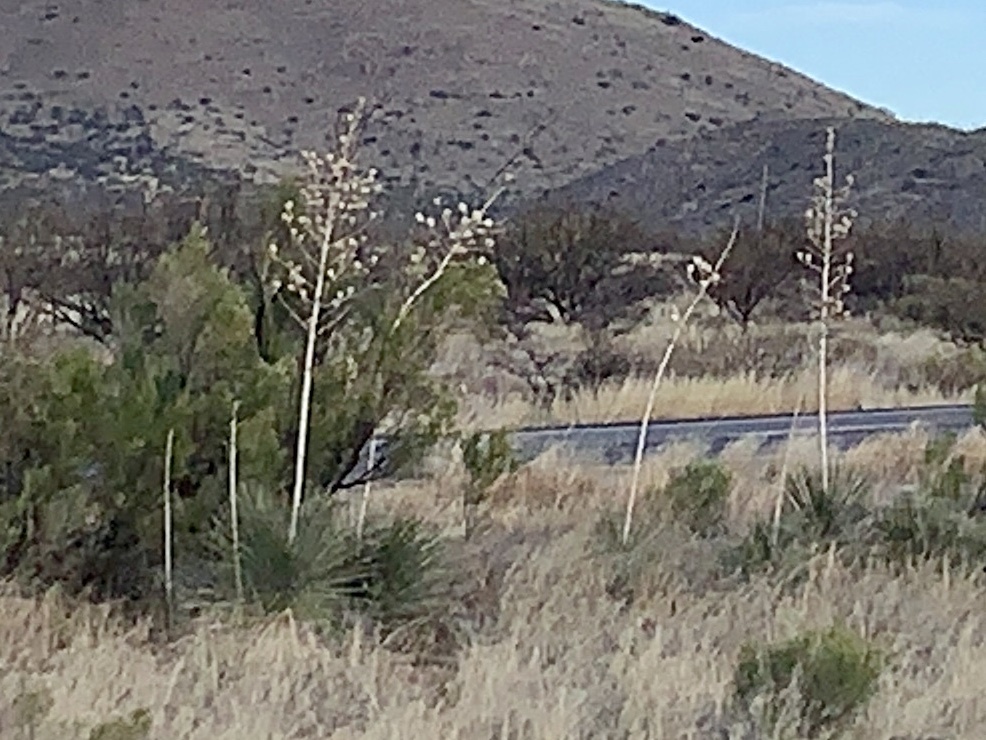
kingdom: Plantae
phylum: Tracheophyta
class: Liliopsida
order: Asparagales
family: Asparagaceae
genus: Yucca
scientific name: Yucca elata
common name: Palmella
